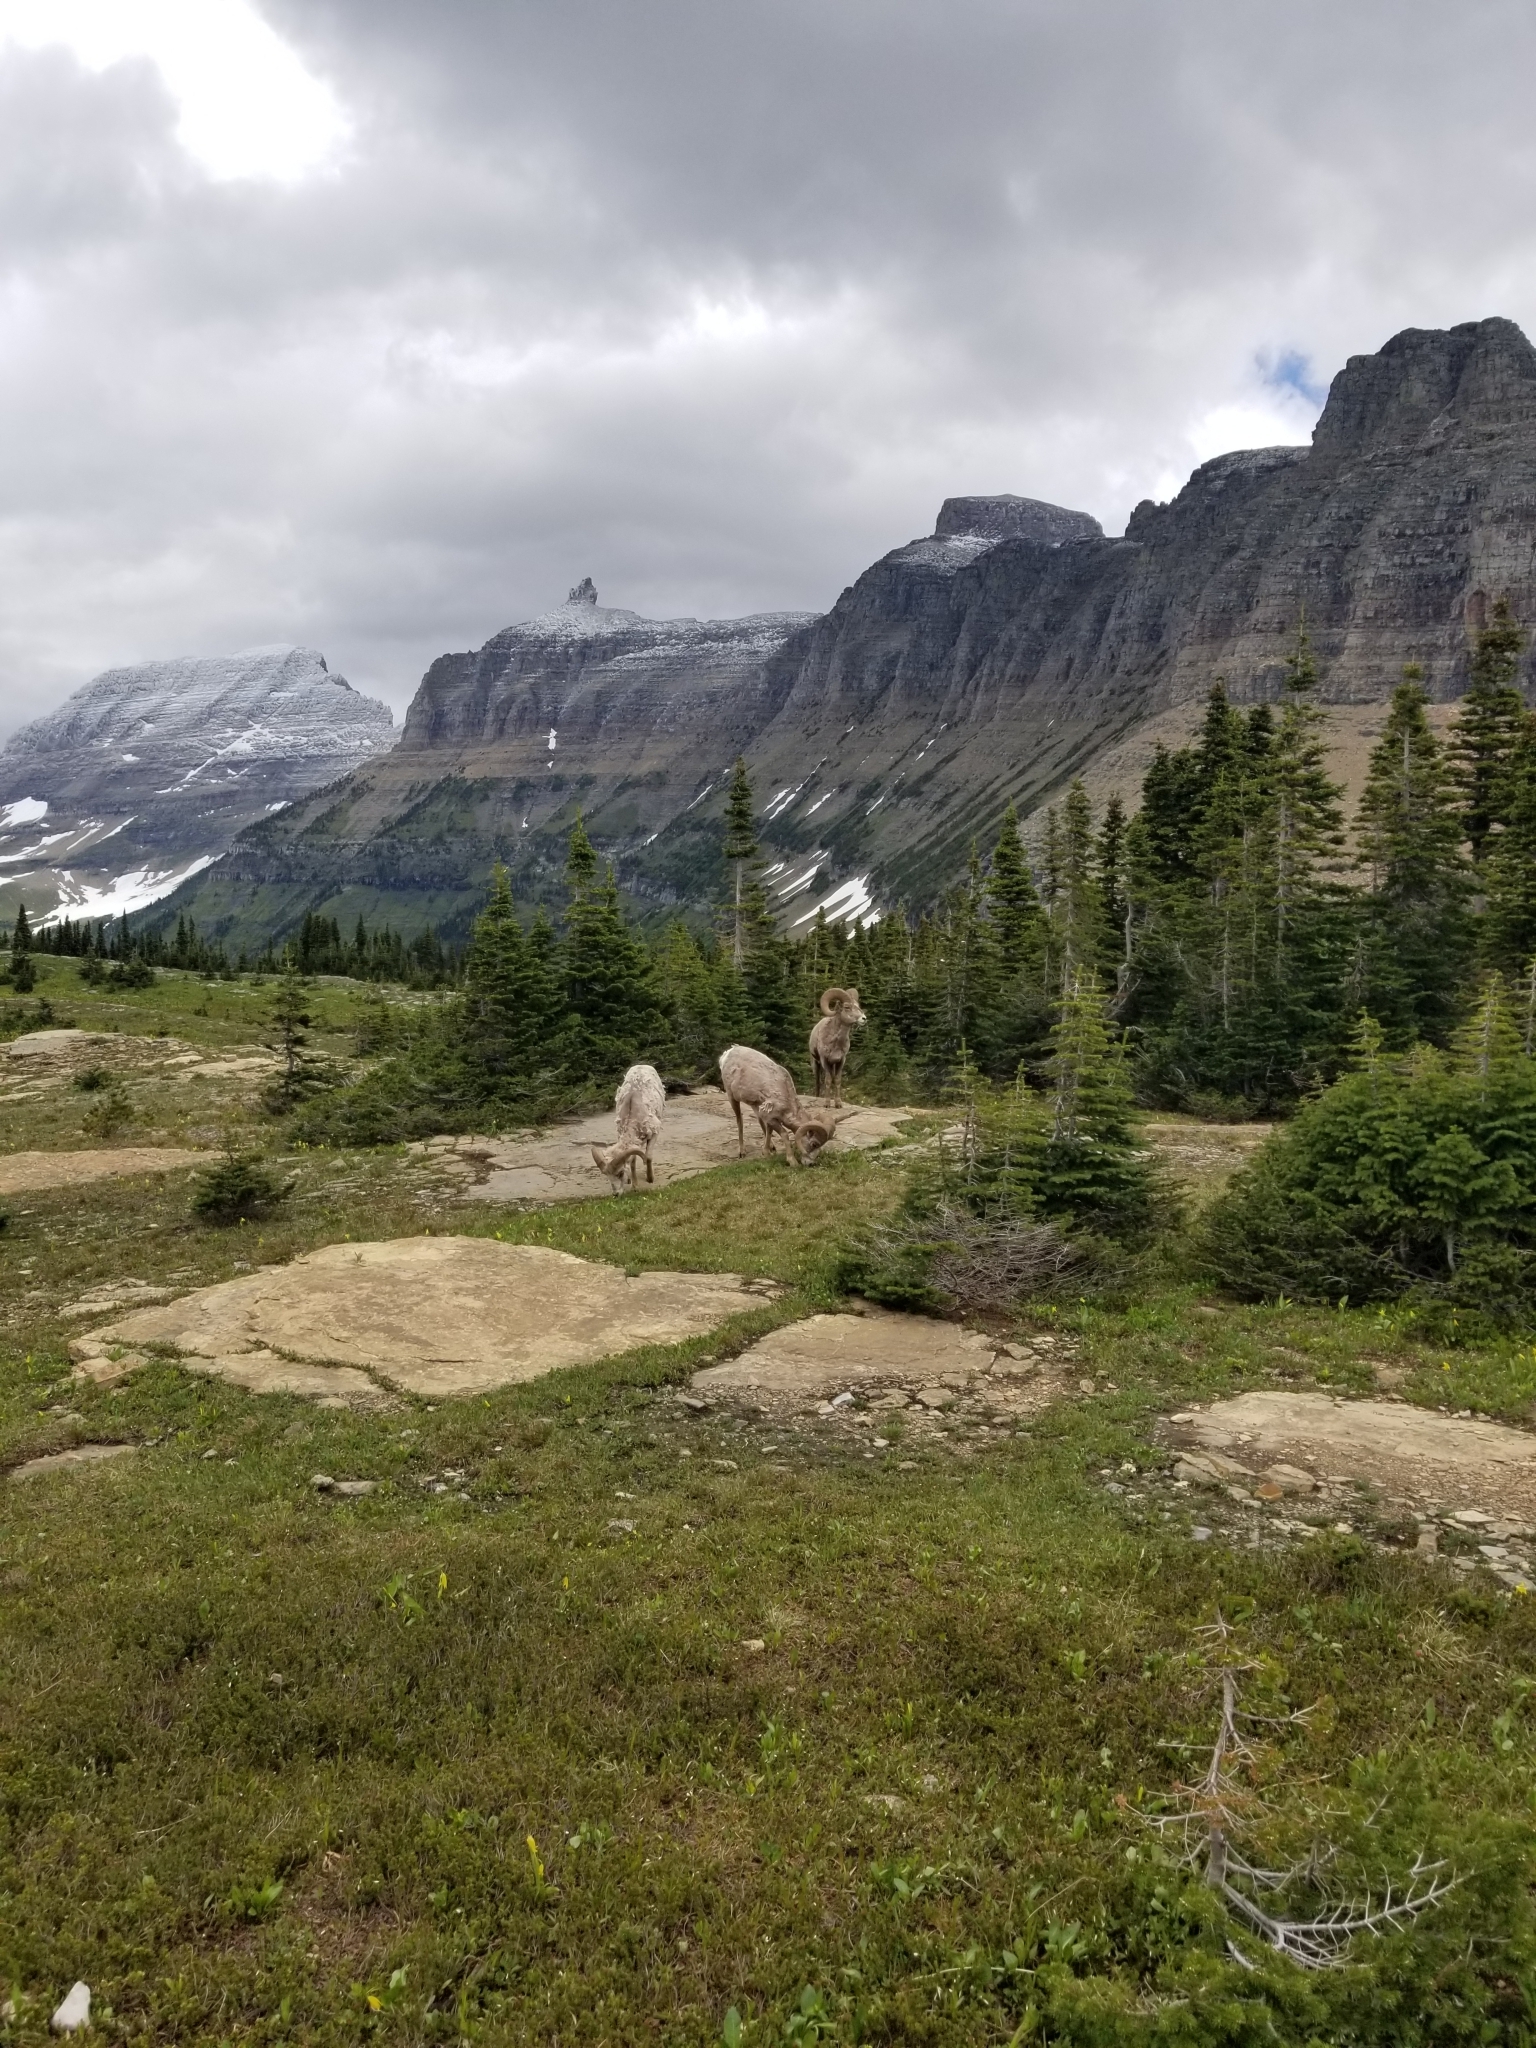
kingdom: Animalia
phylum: Chordata
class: Mammalia
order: Artiodactyla
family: Bovidae
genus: Ovis
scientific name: Ovis canadensis
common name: Bighorn sheep
